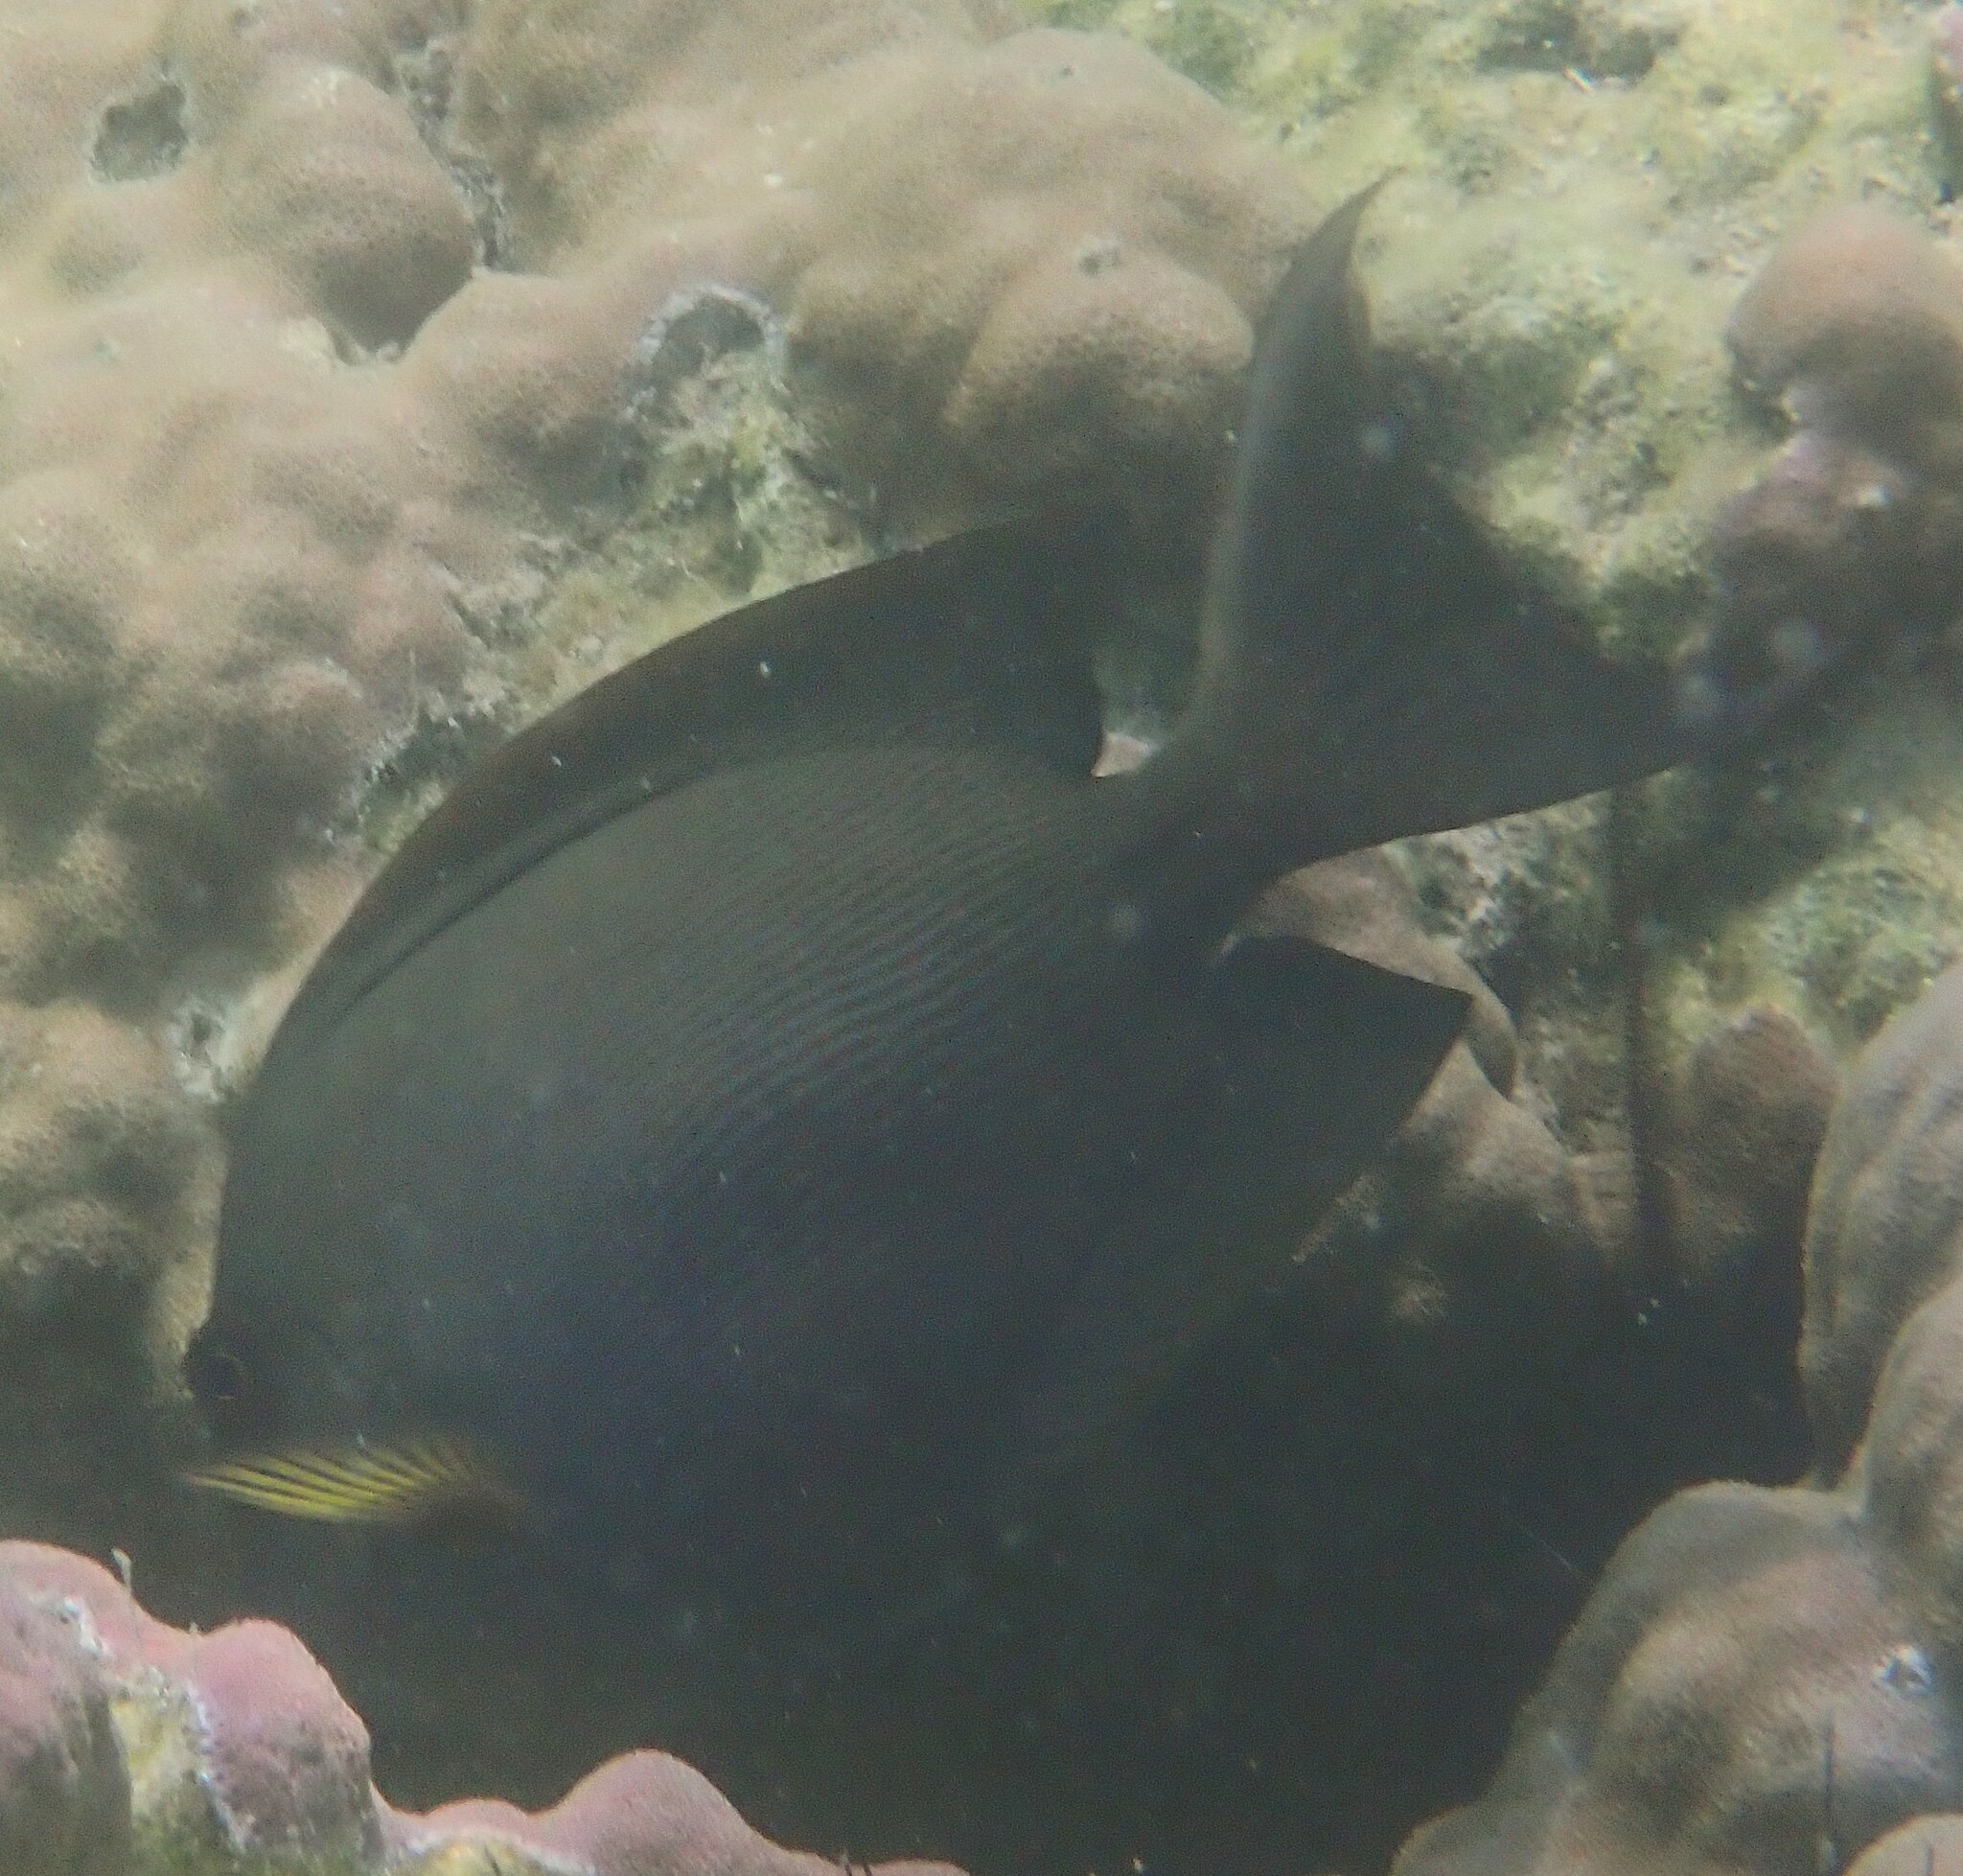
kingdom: Animalia
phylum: Chordata
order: Perciformes
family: Acanthuridae
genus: Ctenochaetus
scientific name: Ctenochaetus striatus
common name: Bristle-toothed surgeonfish
